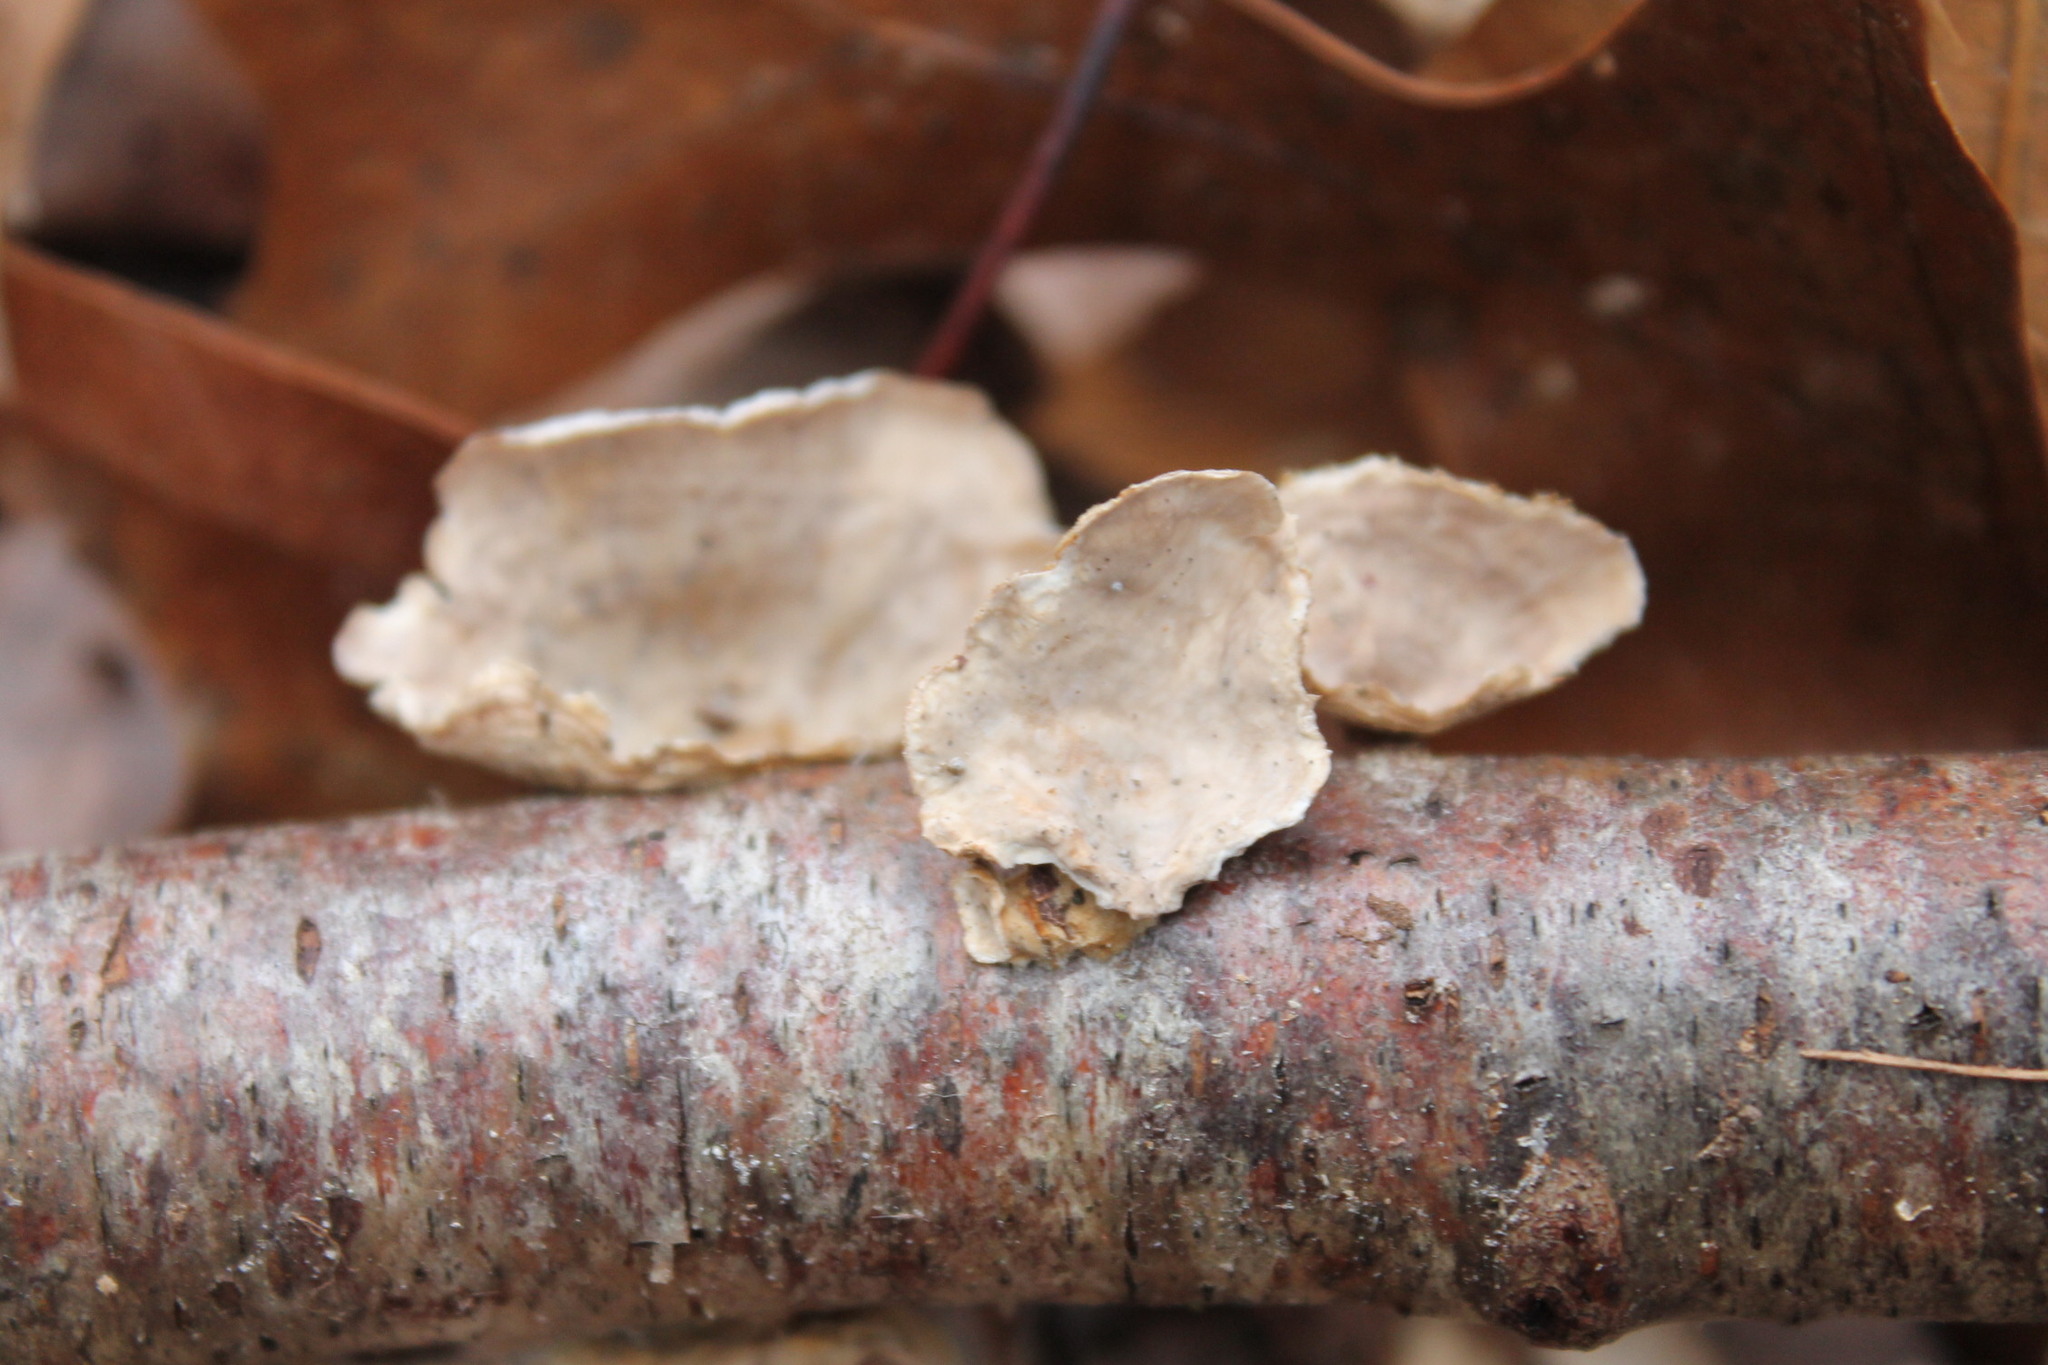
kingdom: Fungi
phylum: Basidiomycota
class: Agaricomycetes
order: Russulales
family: Stereaceae
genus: Stereum
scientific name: Stereum subtomentosum
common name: Yellowing curtain crust
